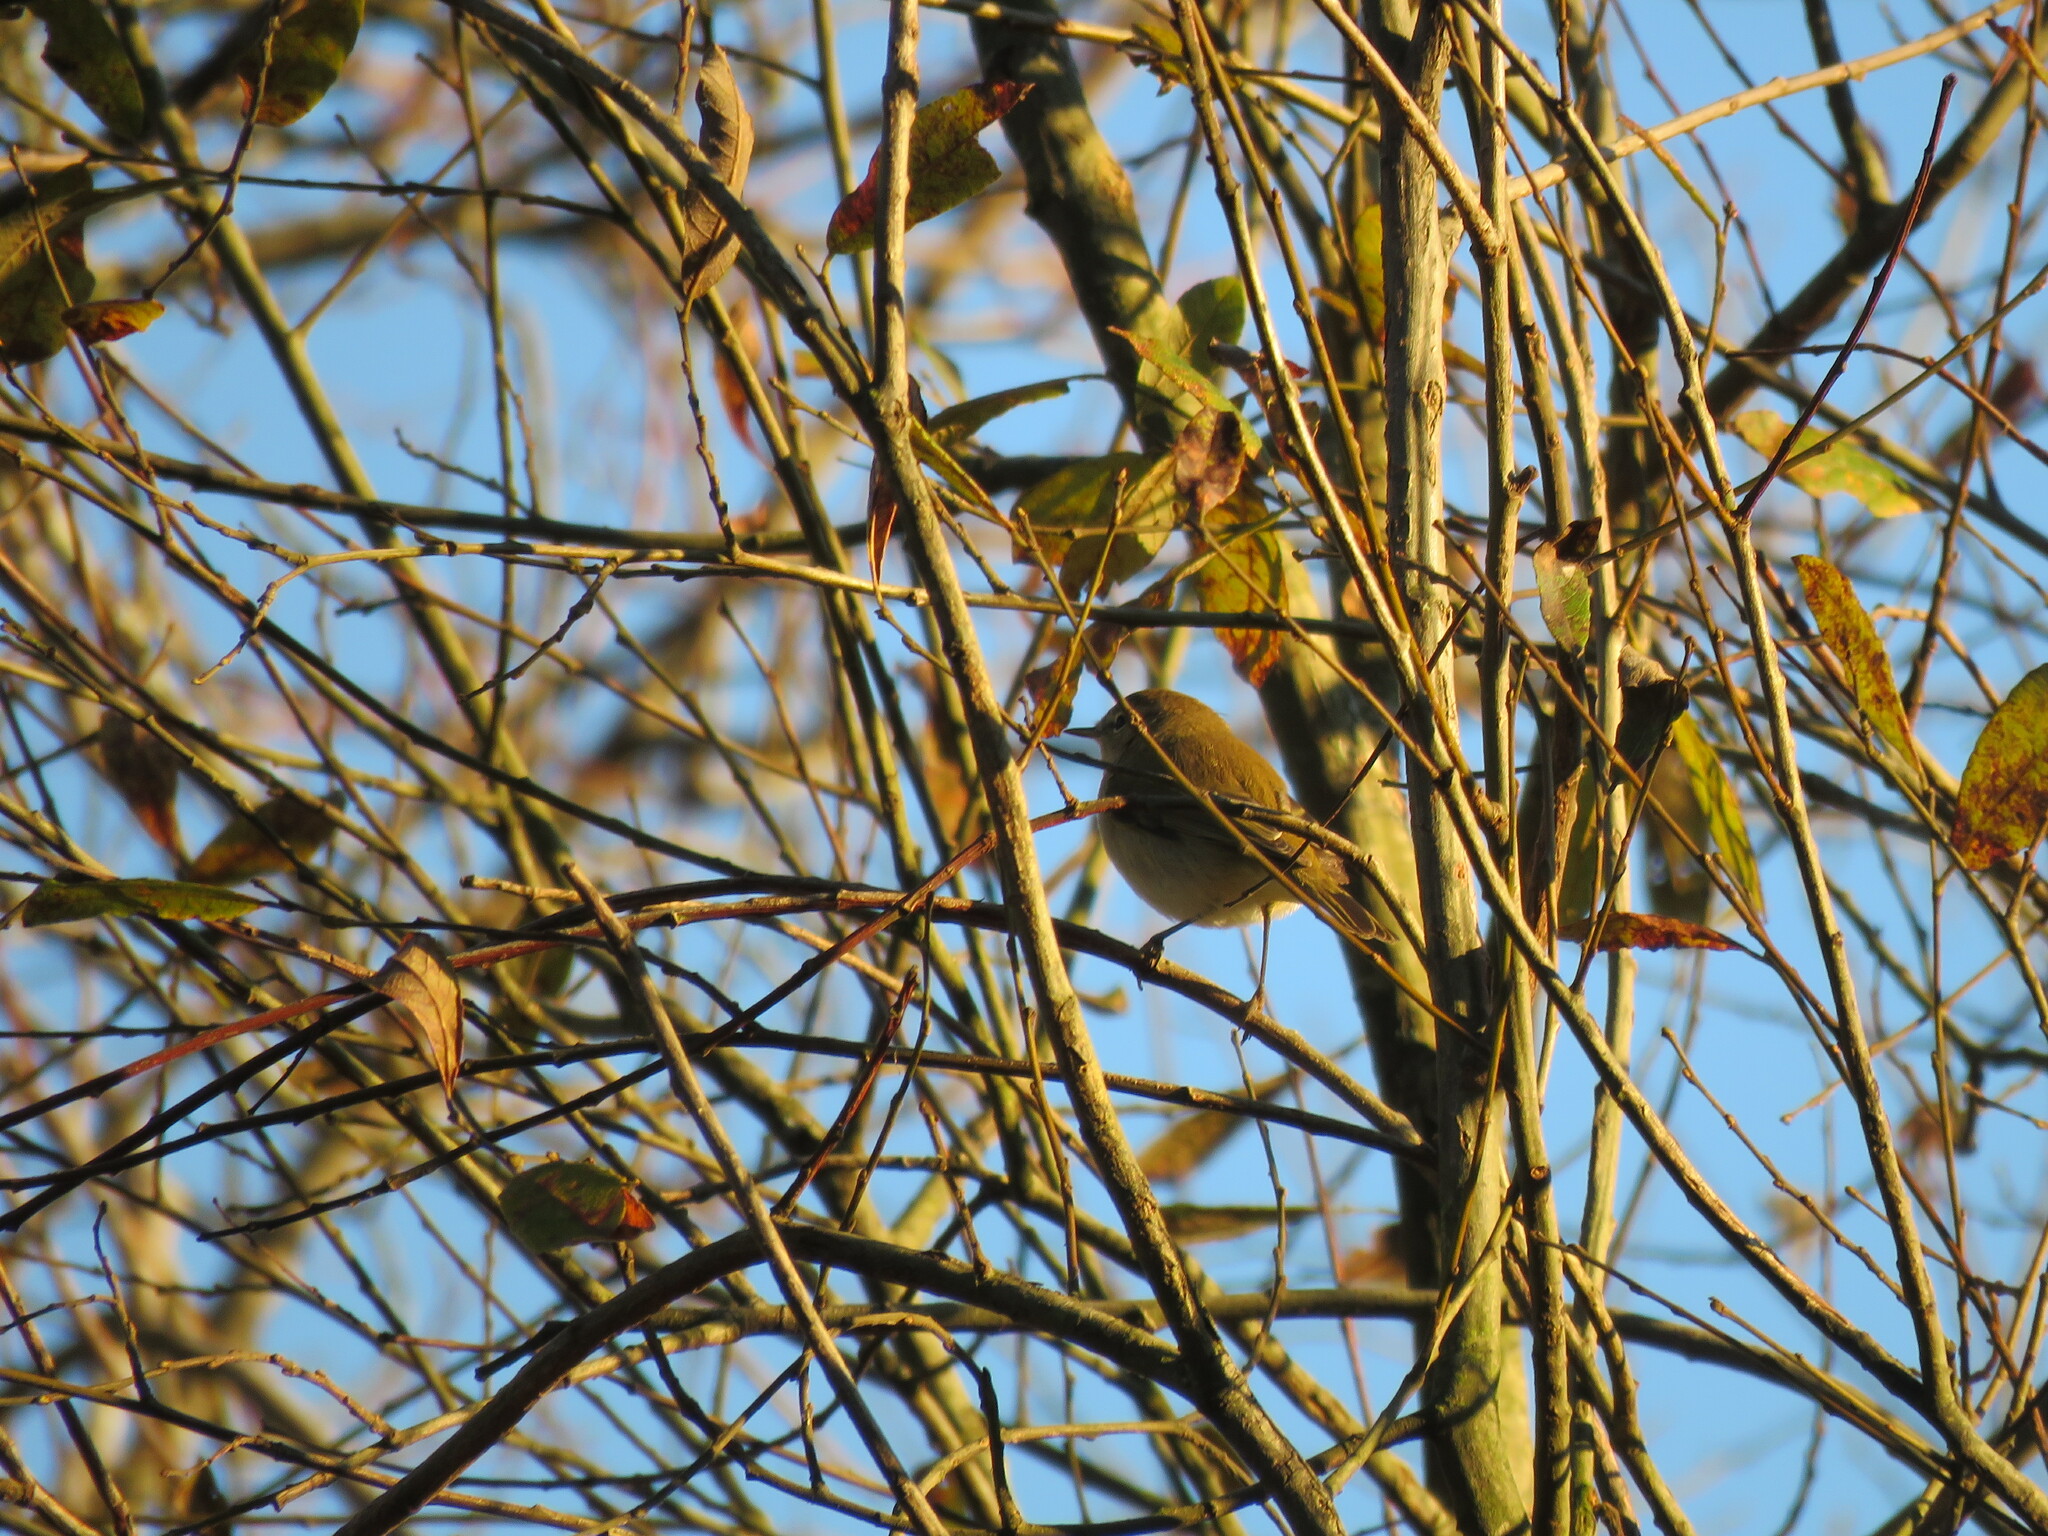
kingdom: Animalia
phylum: Chordata
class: Aves
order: Passeriformes
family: Phylloscopidae
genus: Phylloscopus
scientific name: Phylloscopus collybita
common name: Common chiffchaff
